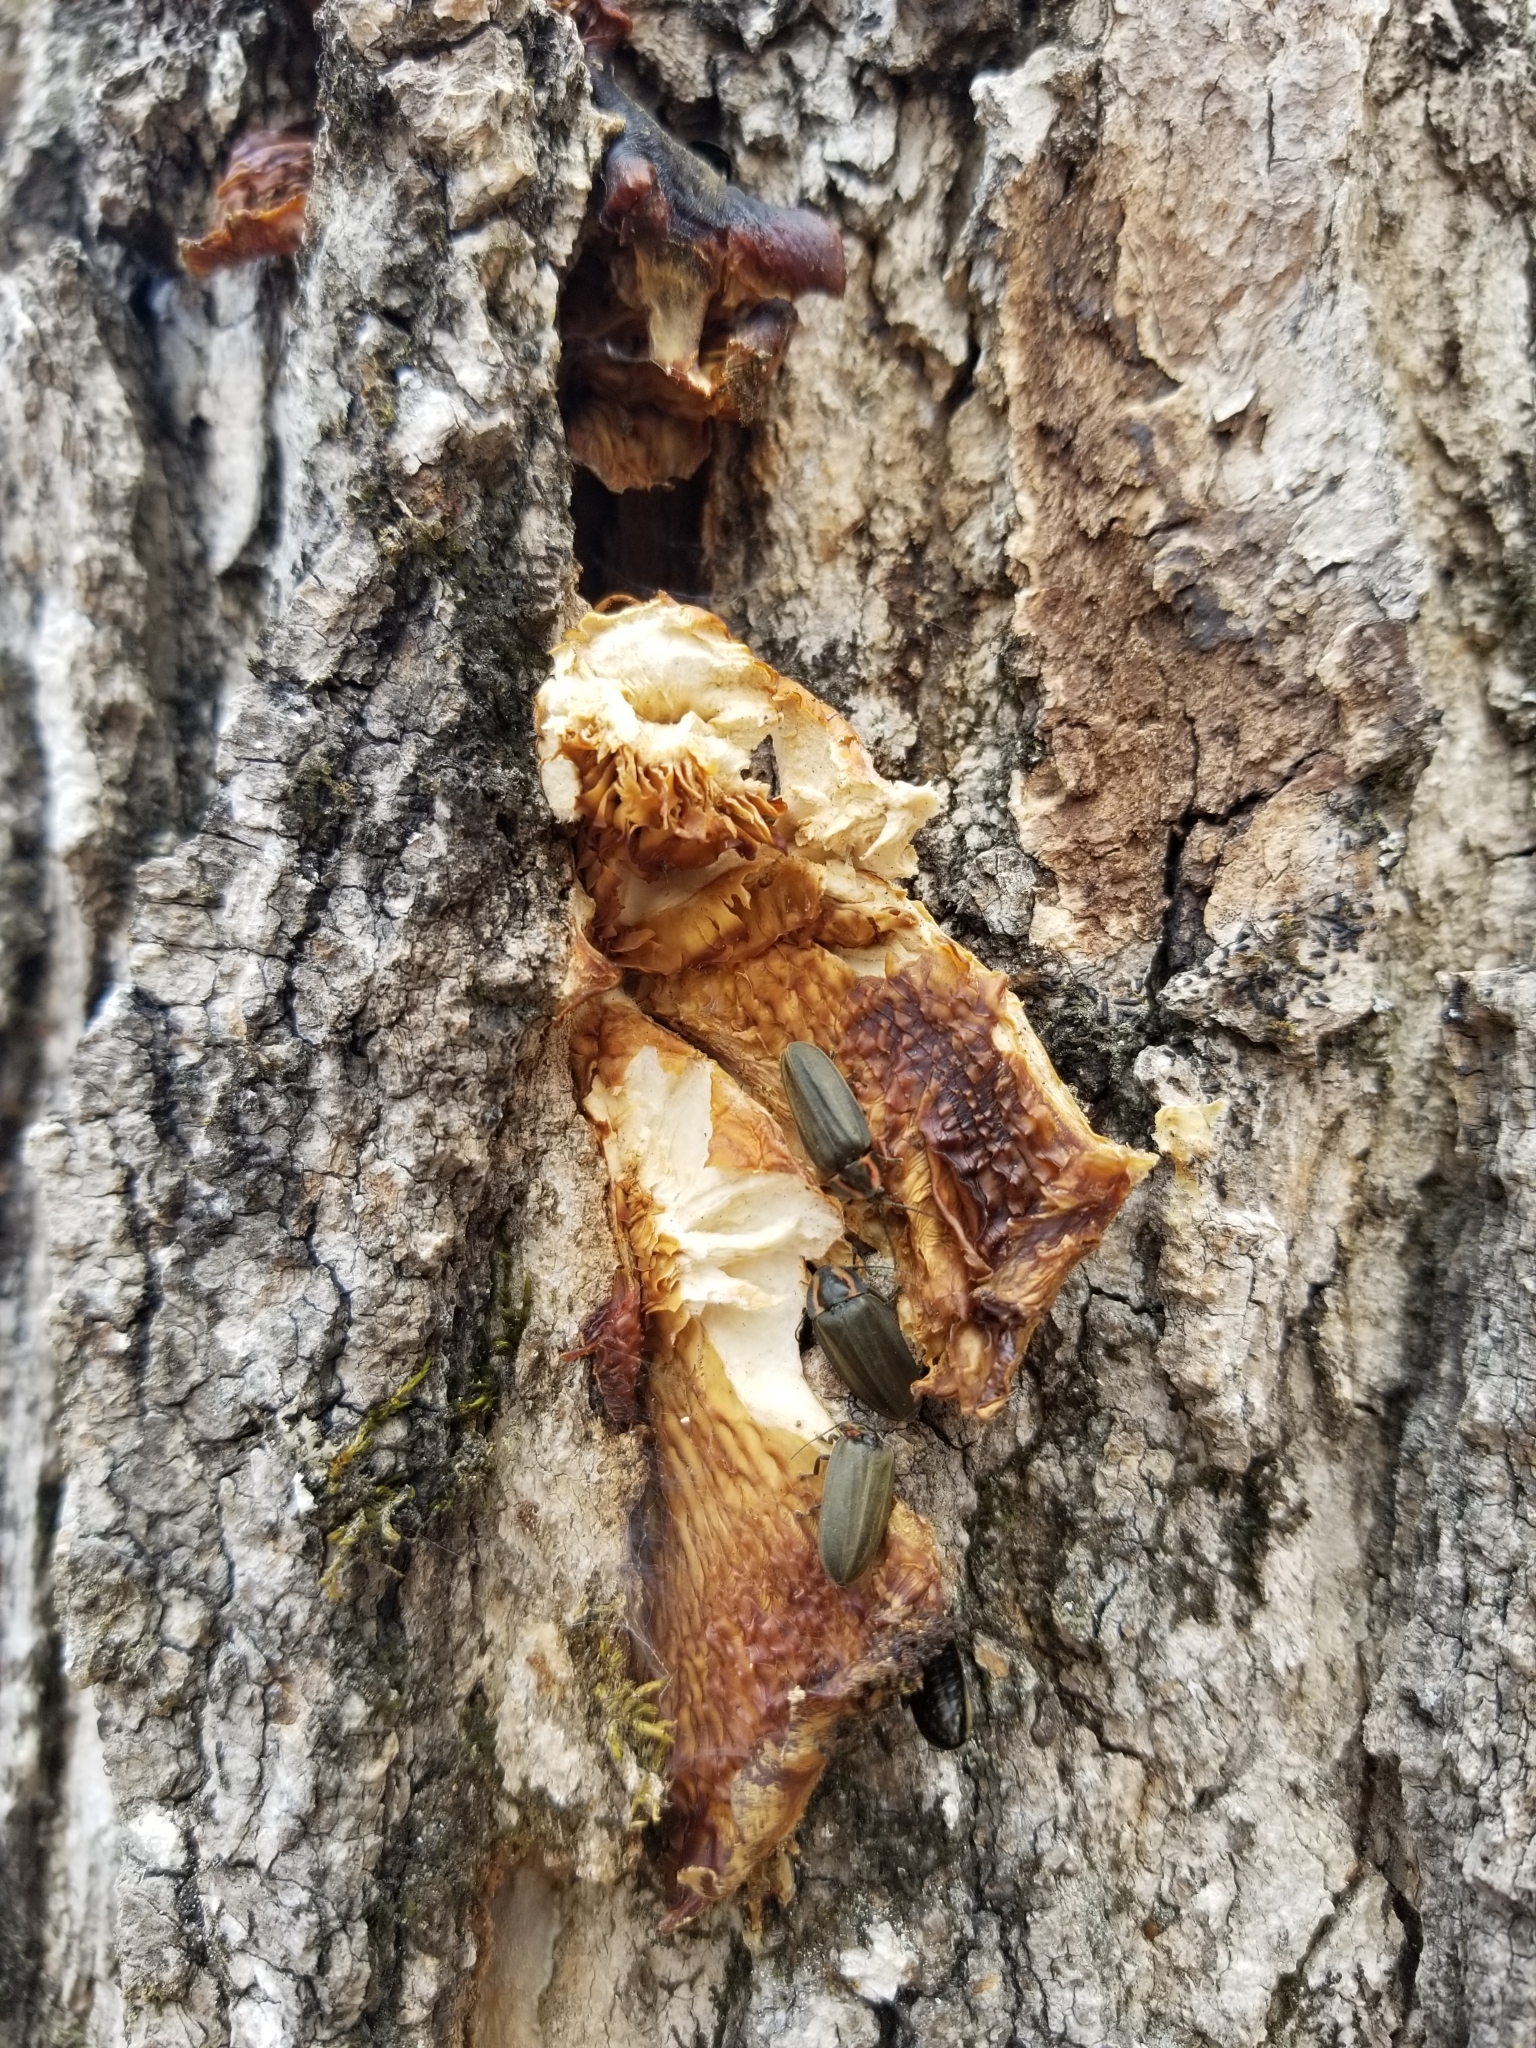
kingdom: Animalia
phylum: Arthropoda
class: Insecta
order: Coleoptera
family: Lampyridae
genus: Photinus
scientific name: Photinus corrusca
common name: Winter firefly
